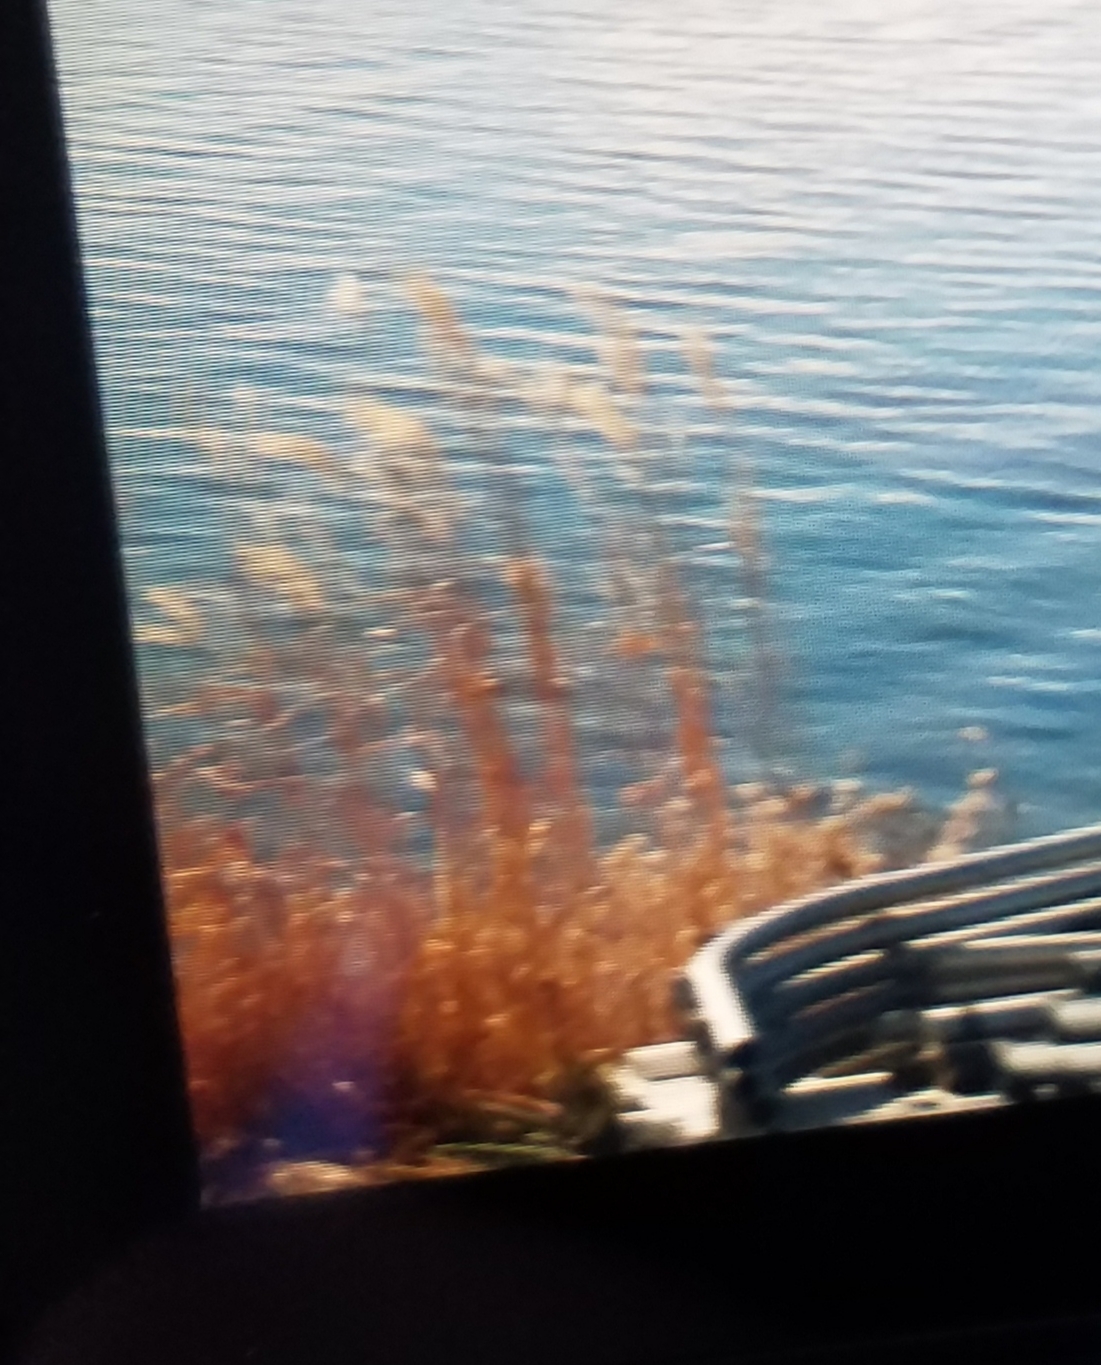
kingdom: Plantae
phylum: Tracheophyta
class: Liliopsida
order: Poales
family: Poaceae
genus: Phragmites
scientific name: Phragmites australis
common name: Common reed
